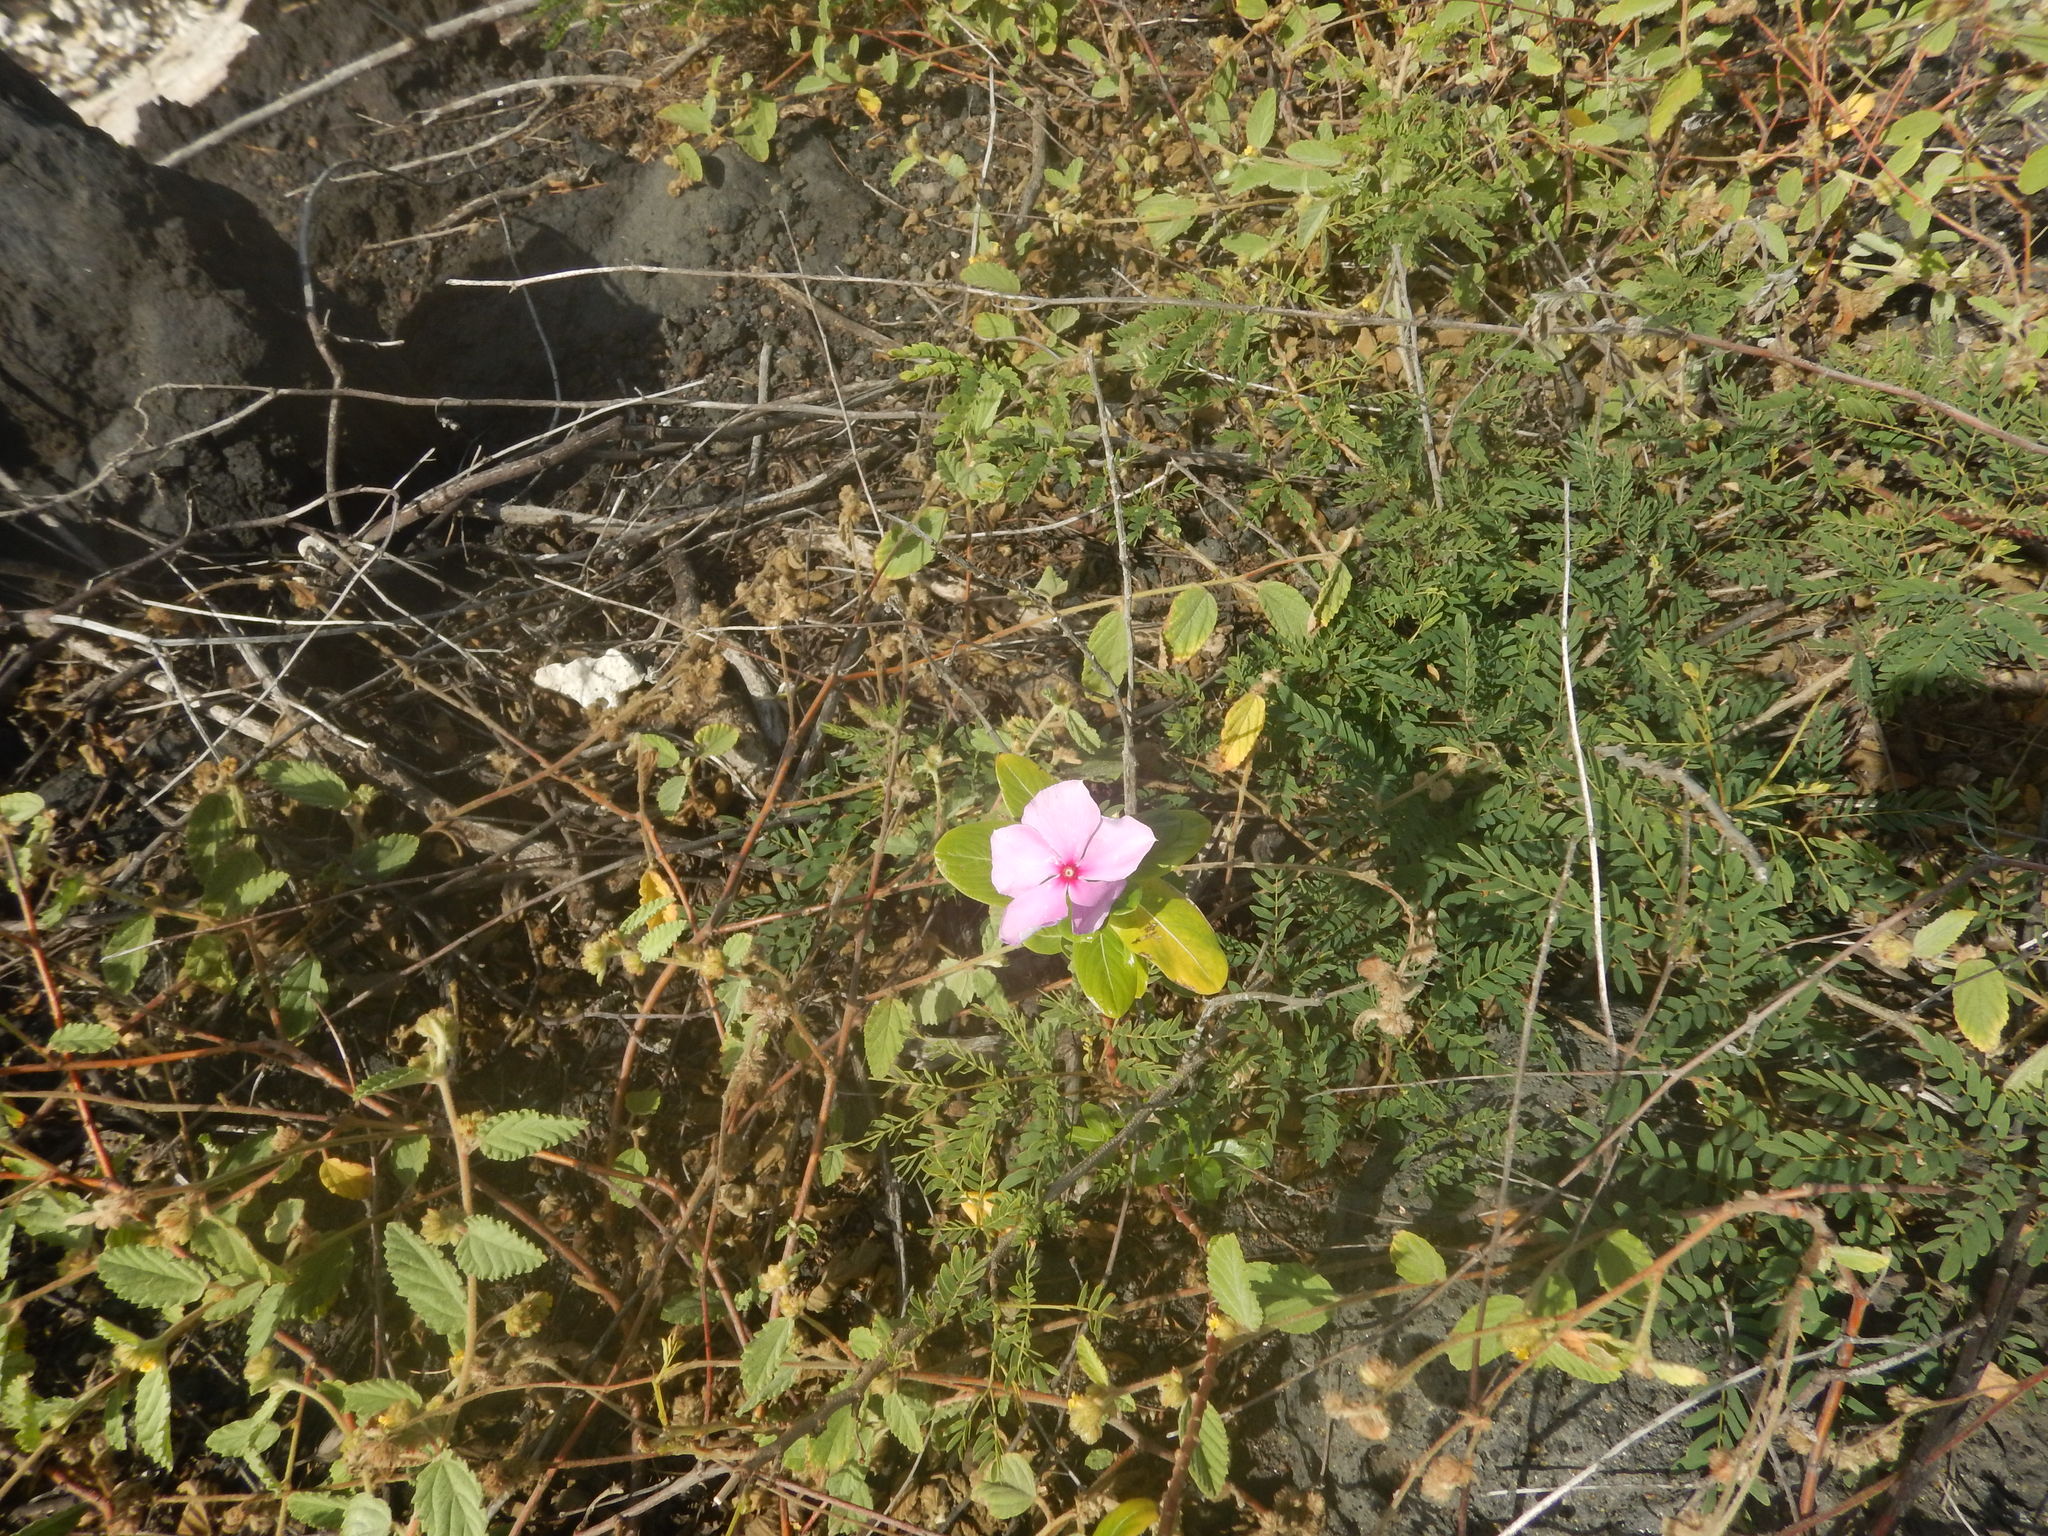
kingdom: Plantae
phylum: Tracheophyta
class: Magnoliopsida
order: Gentianales
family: Apocynaceae
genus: Catharanthus
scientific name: Catharanthus roseus
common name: Madagascar periwinkle
